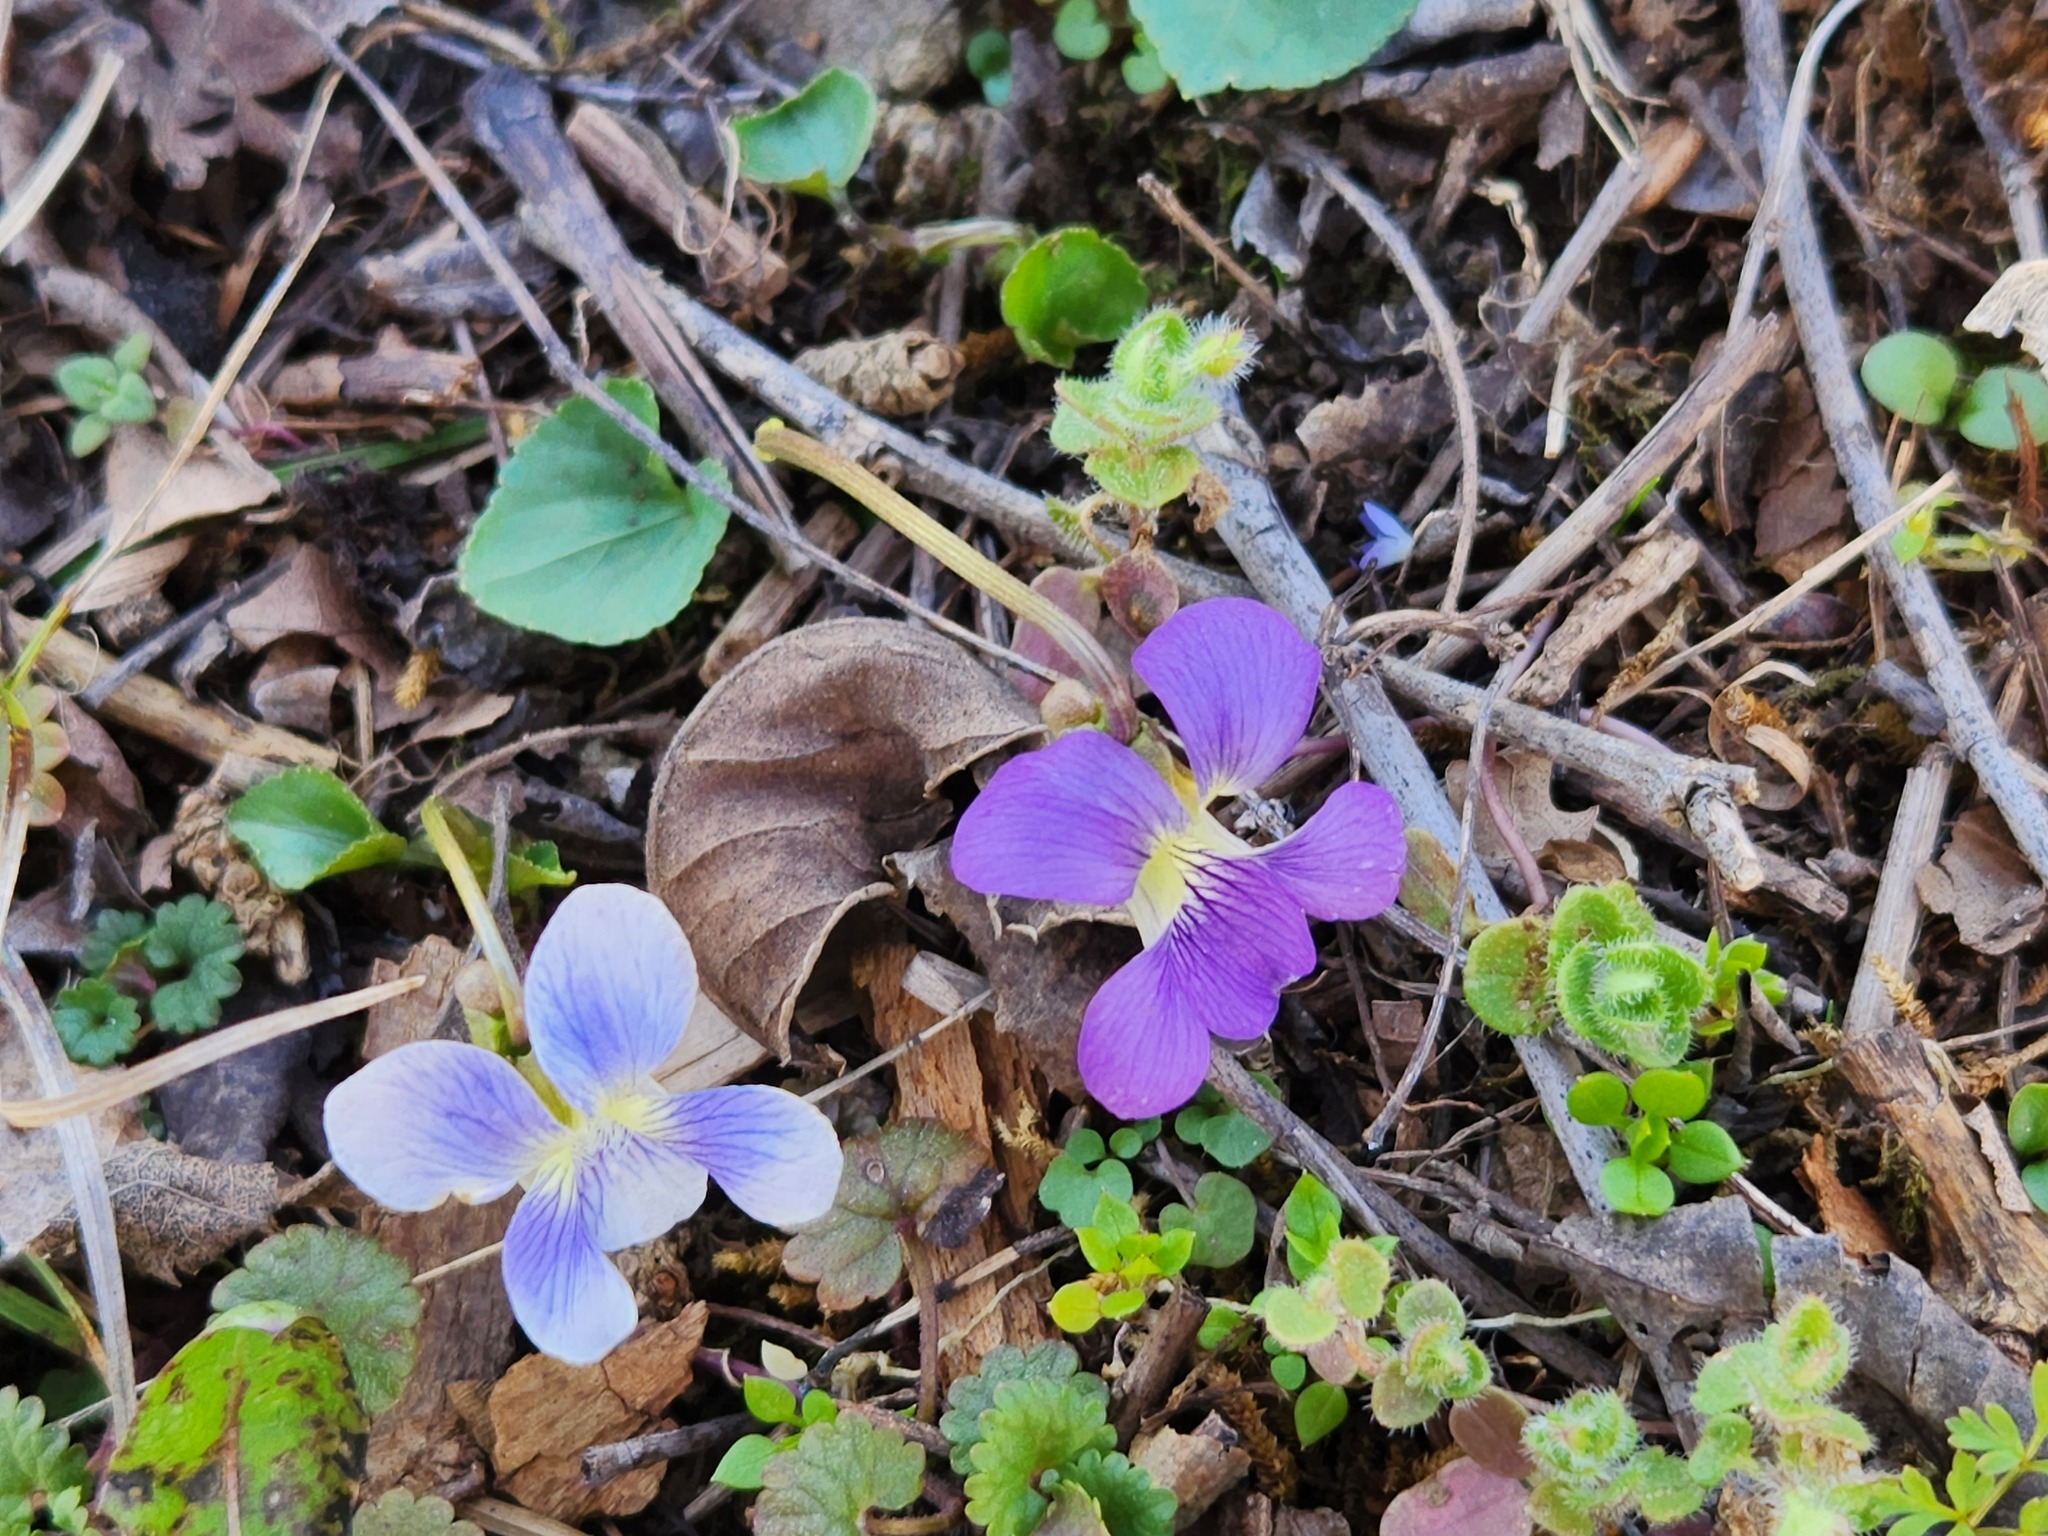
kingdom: Plantae
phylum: Tracheophyta
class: Magnoliopsida
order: Malpighiales
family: Violaceae
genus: Viola
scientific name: Viola sororia
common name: Dooryard violet
